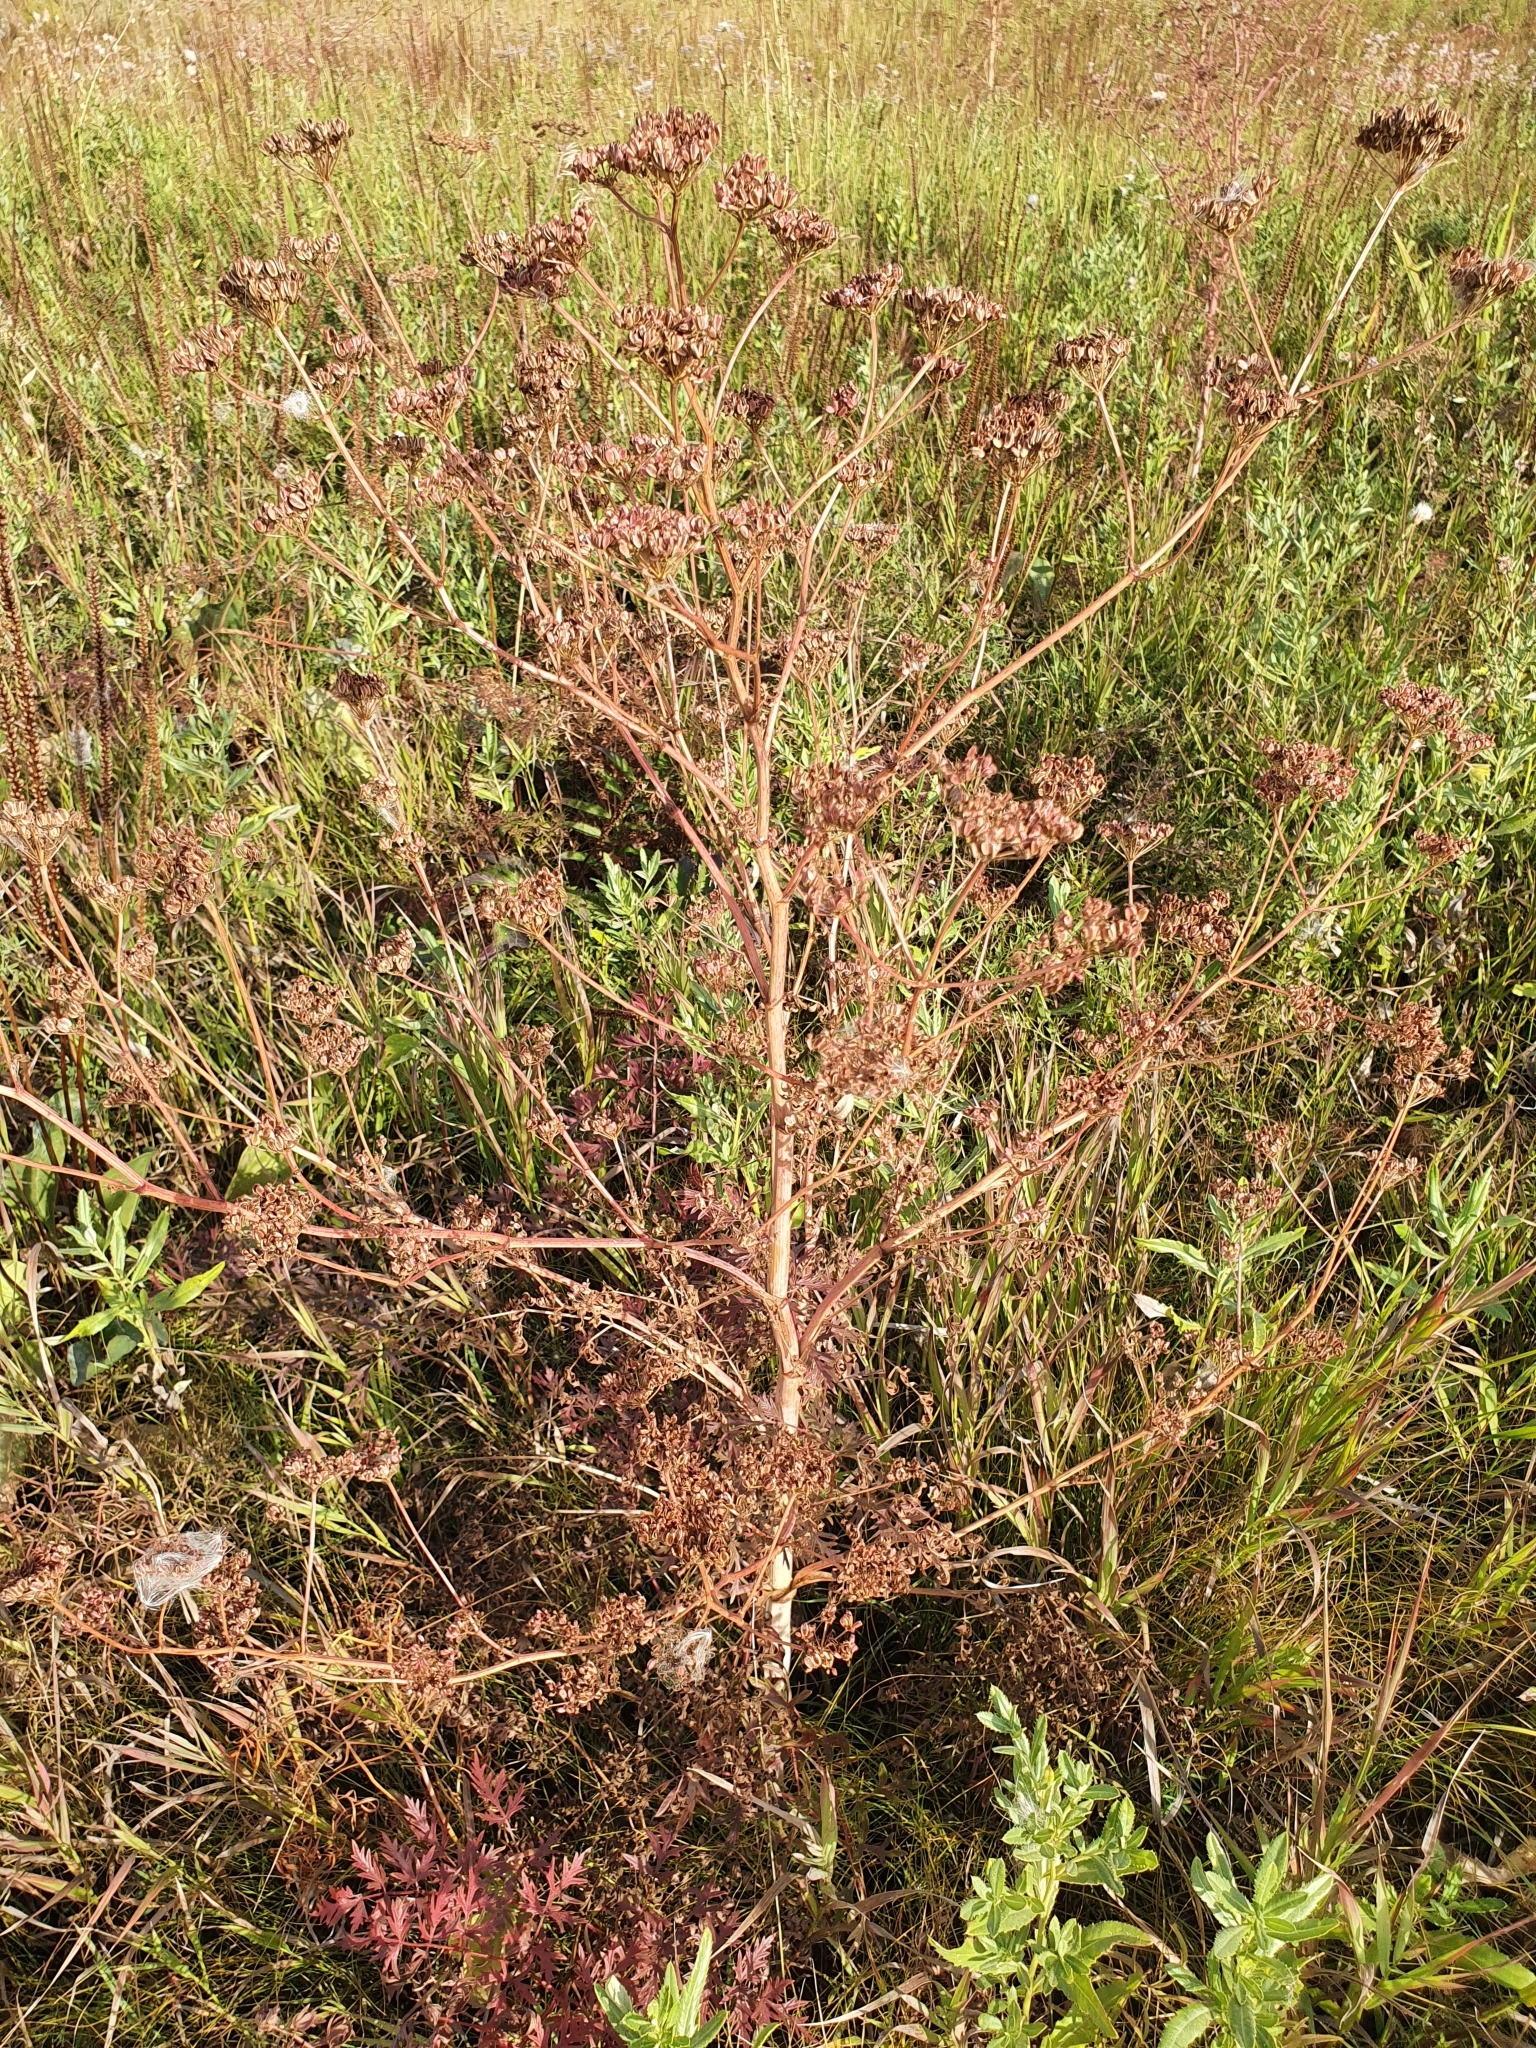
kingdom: Plantae
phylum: Tracheophyta
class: Magnoliopsida
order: Apiales
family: Apiaceae
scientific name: Apiaceae
